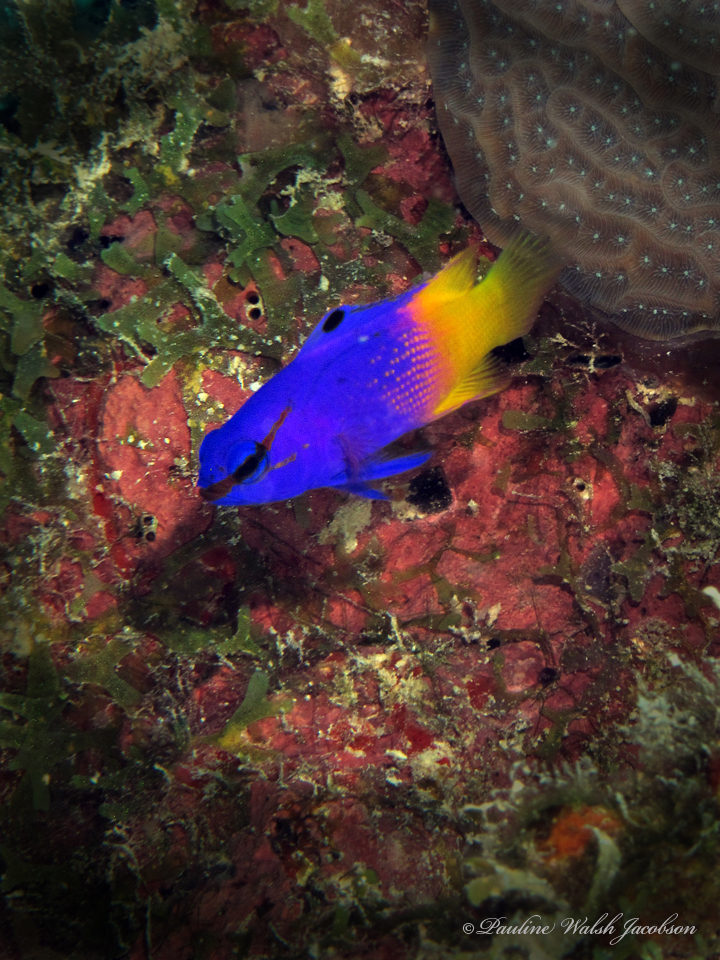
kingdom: Animalia
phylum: Chordata
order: Perciformes
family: Grammatidae
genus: Gramma
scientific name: Gramma loreto
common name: Fairy basslet
